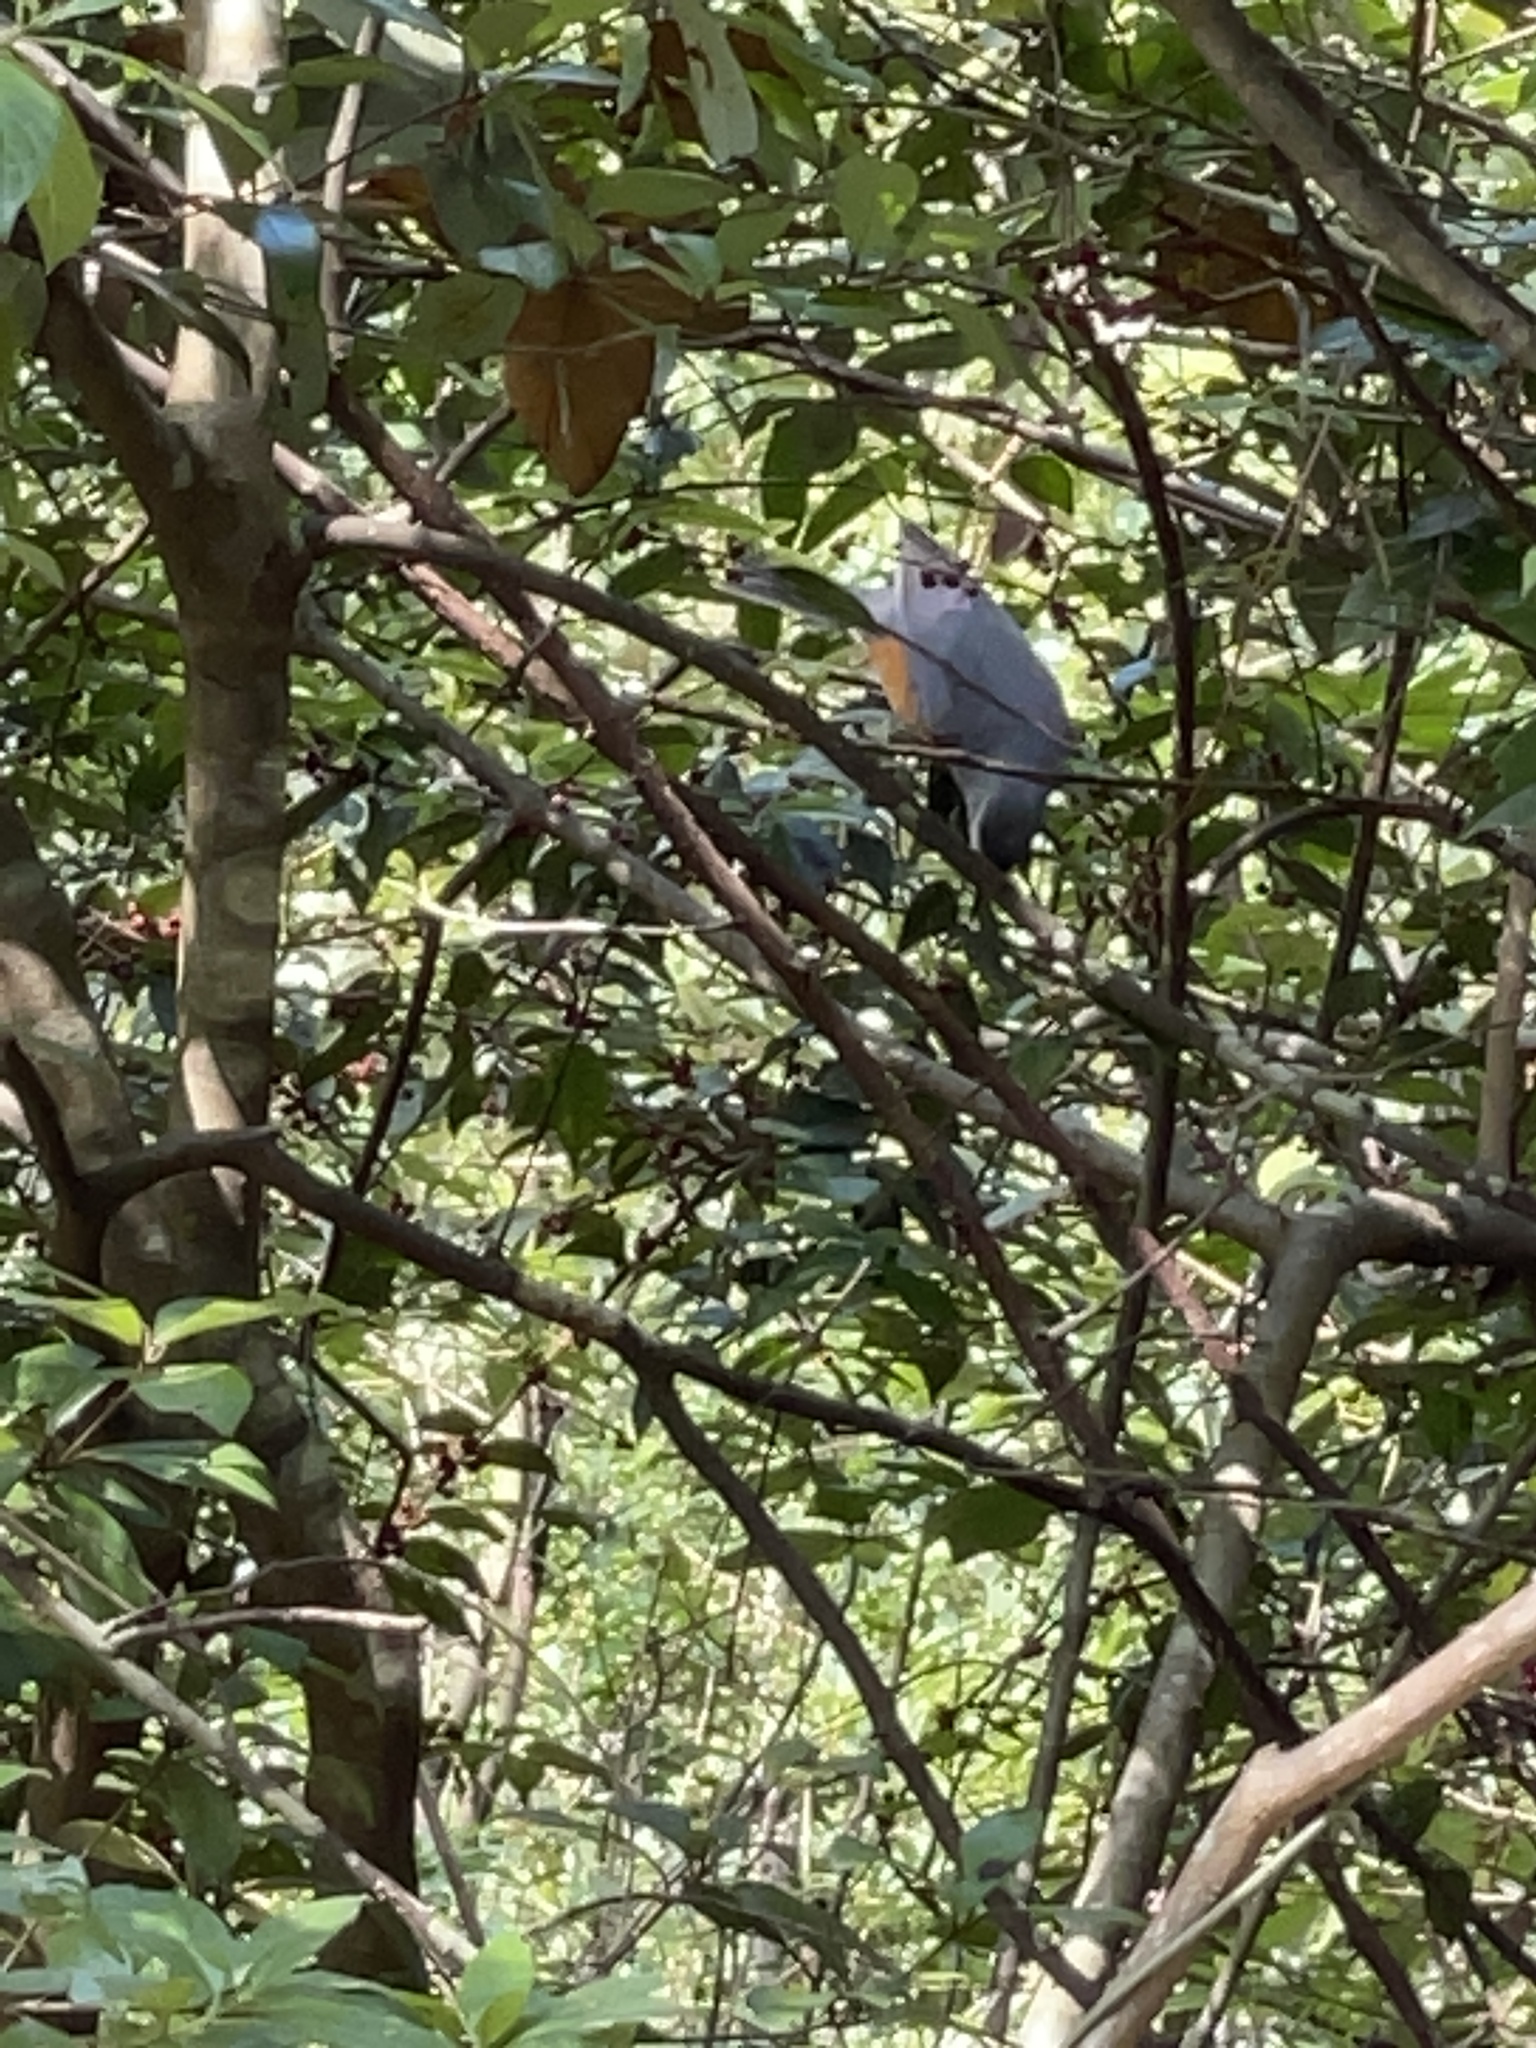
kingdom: Animalia
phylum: Chordata
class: Aves
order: Passeriformes
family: Turdidae
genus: Turdus
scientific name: Turdus hortulorum
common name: Grey-backed thrush
